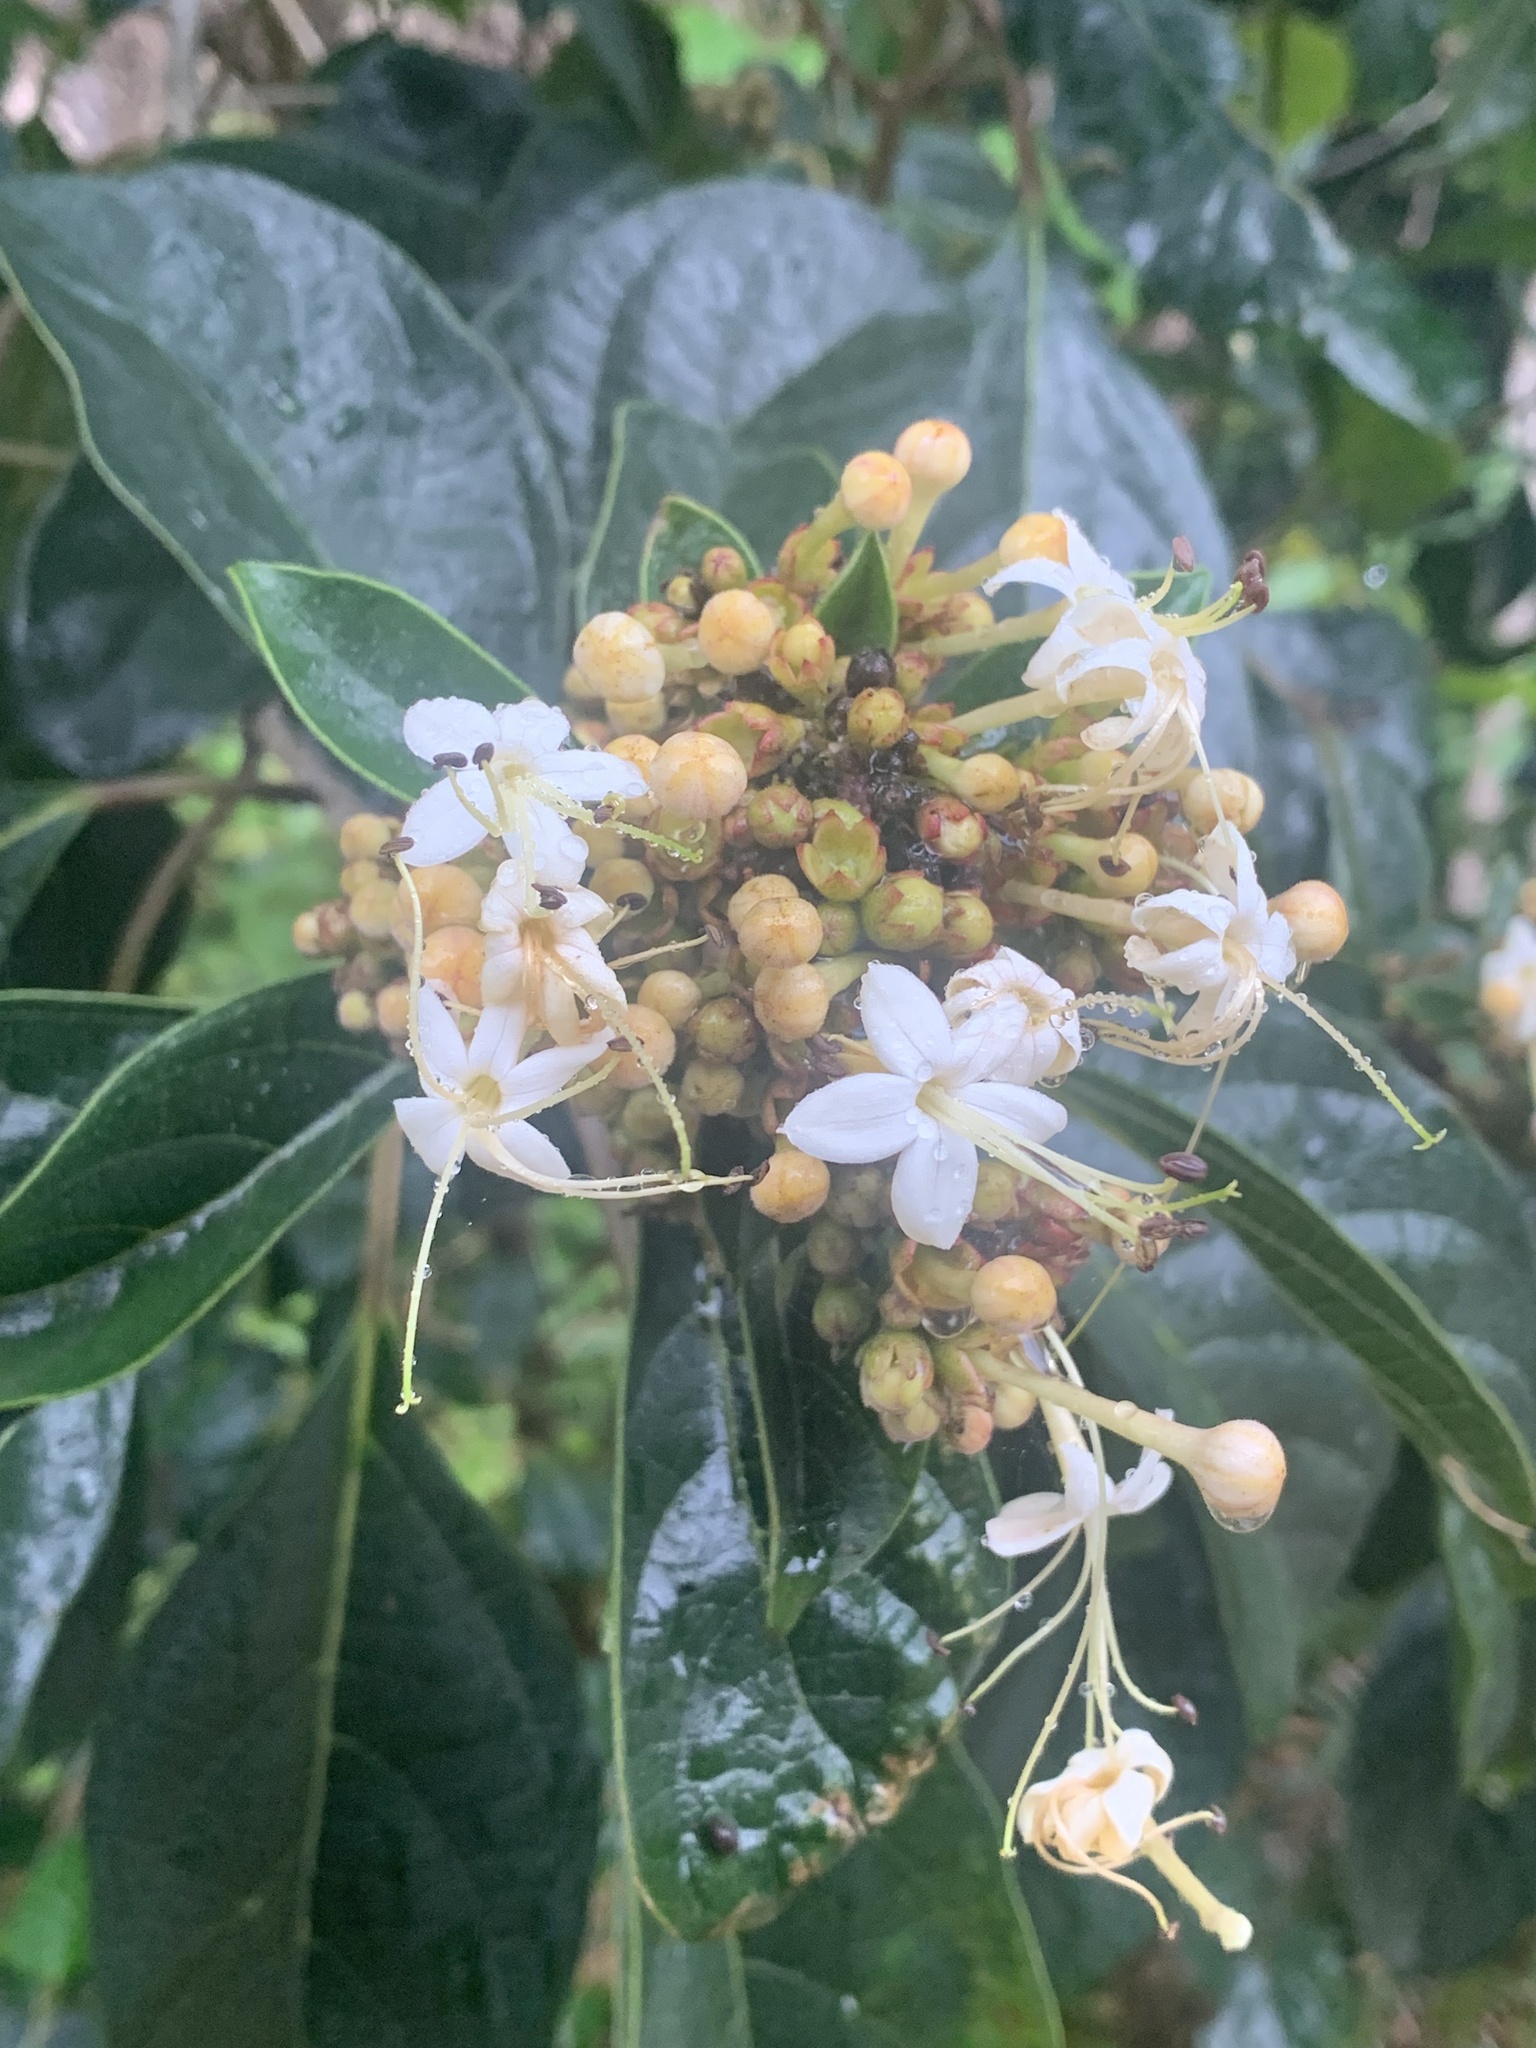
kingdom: Plantae
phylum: Tracheophyta
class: Magnoliopsida
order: Lamiales
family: Lamiaceae
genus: Clerodendrum
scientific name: Clerodendrum tomentosum
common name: Hairy clerodendrum
